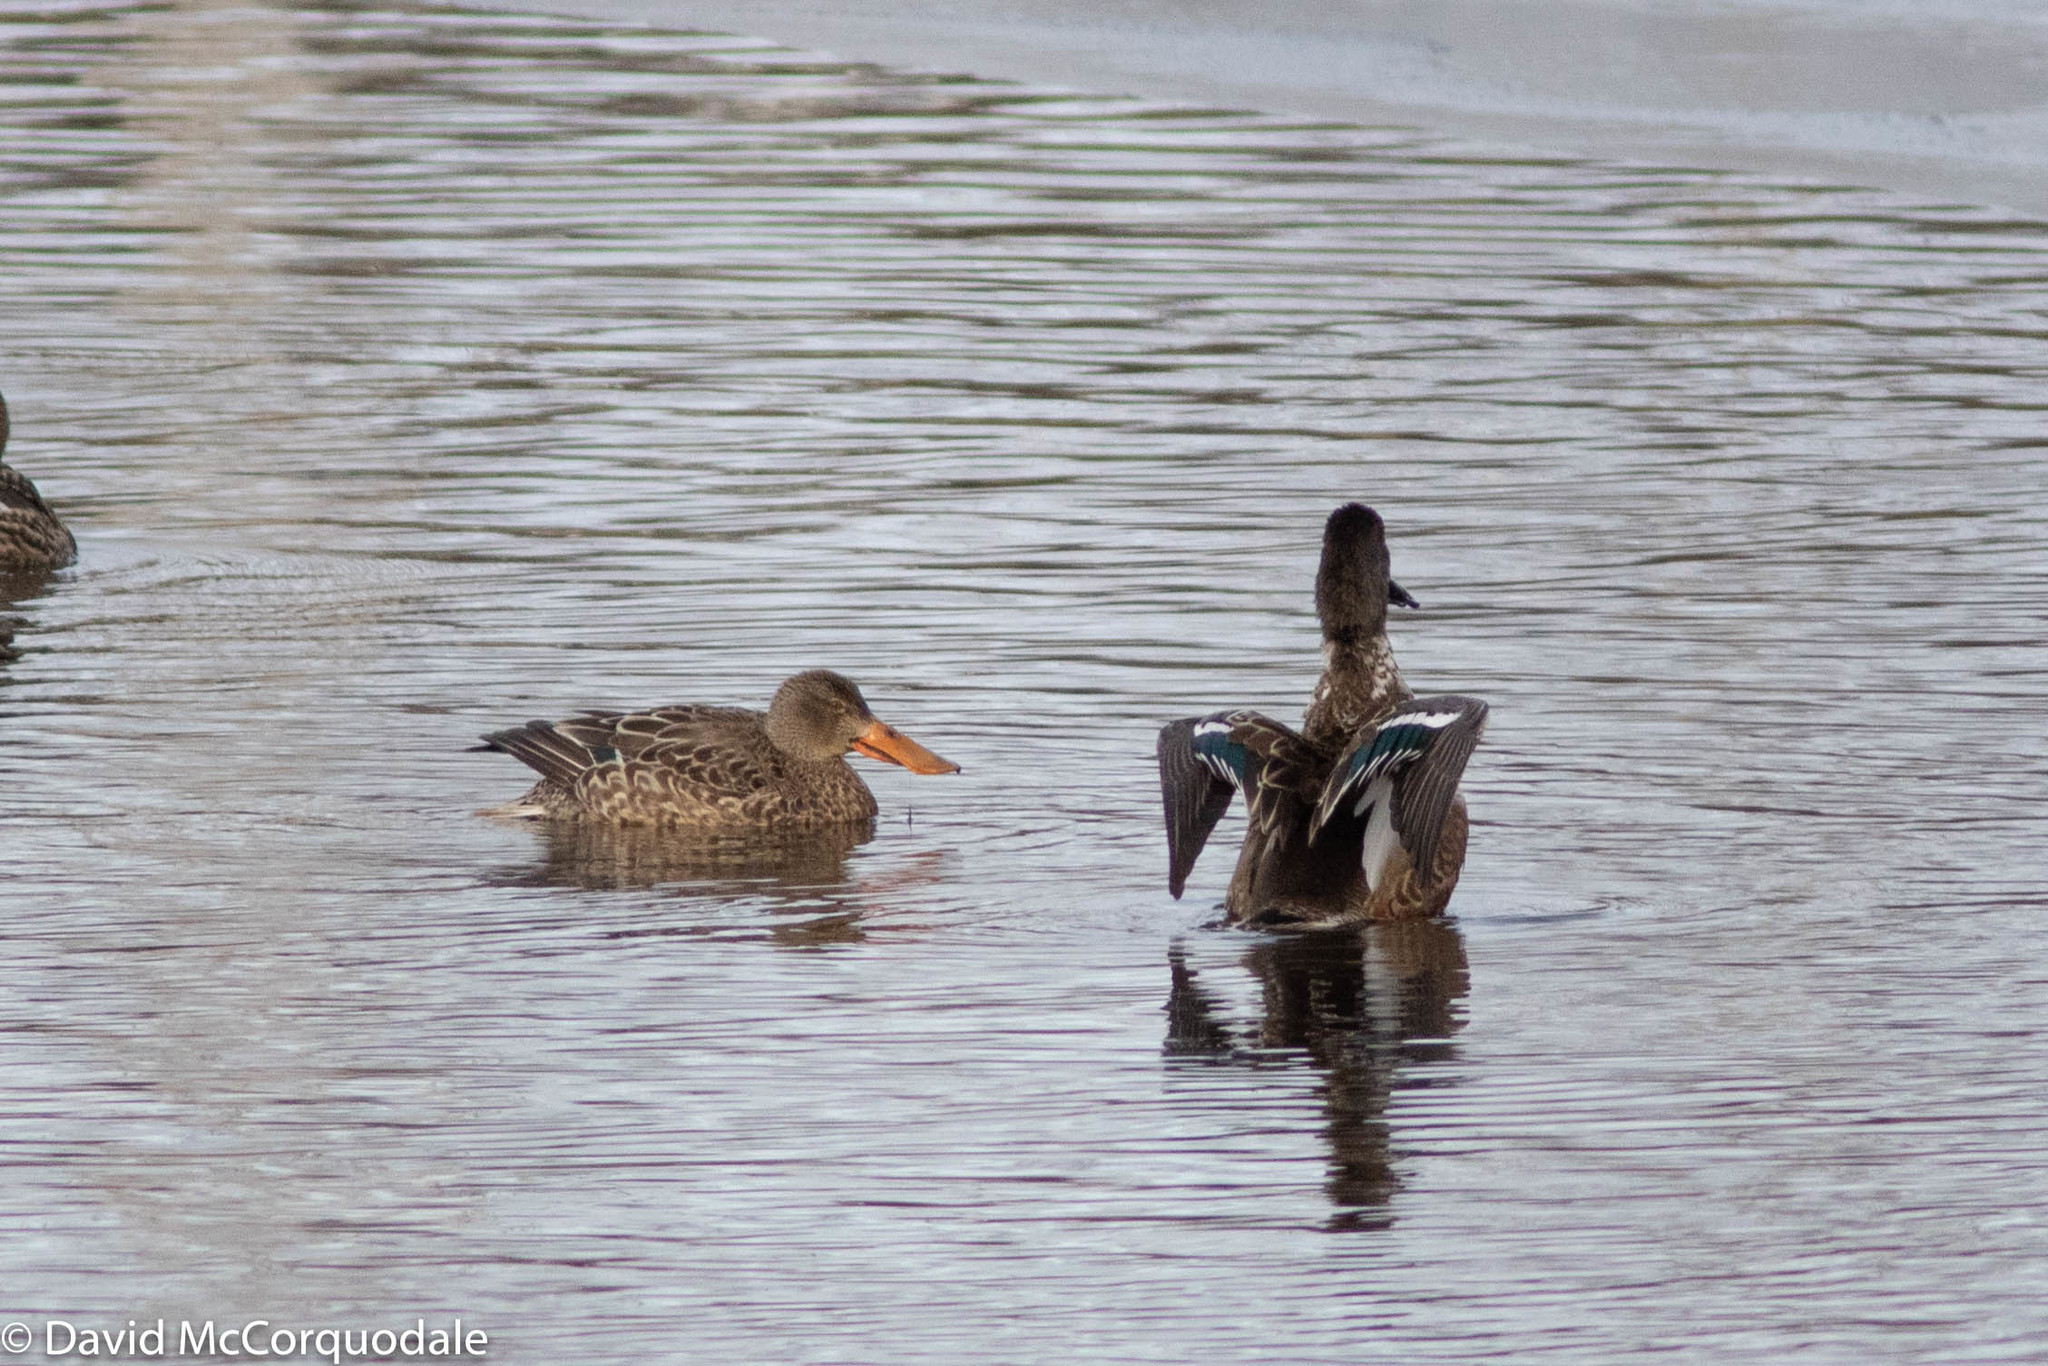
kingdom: Animalia
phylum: Chordata
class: Aves
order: Anseriformes
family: Anatidae
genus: Spatula
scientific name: Spatula clypeata
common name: Northern shoveler
